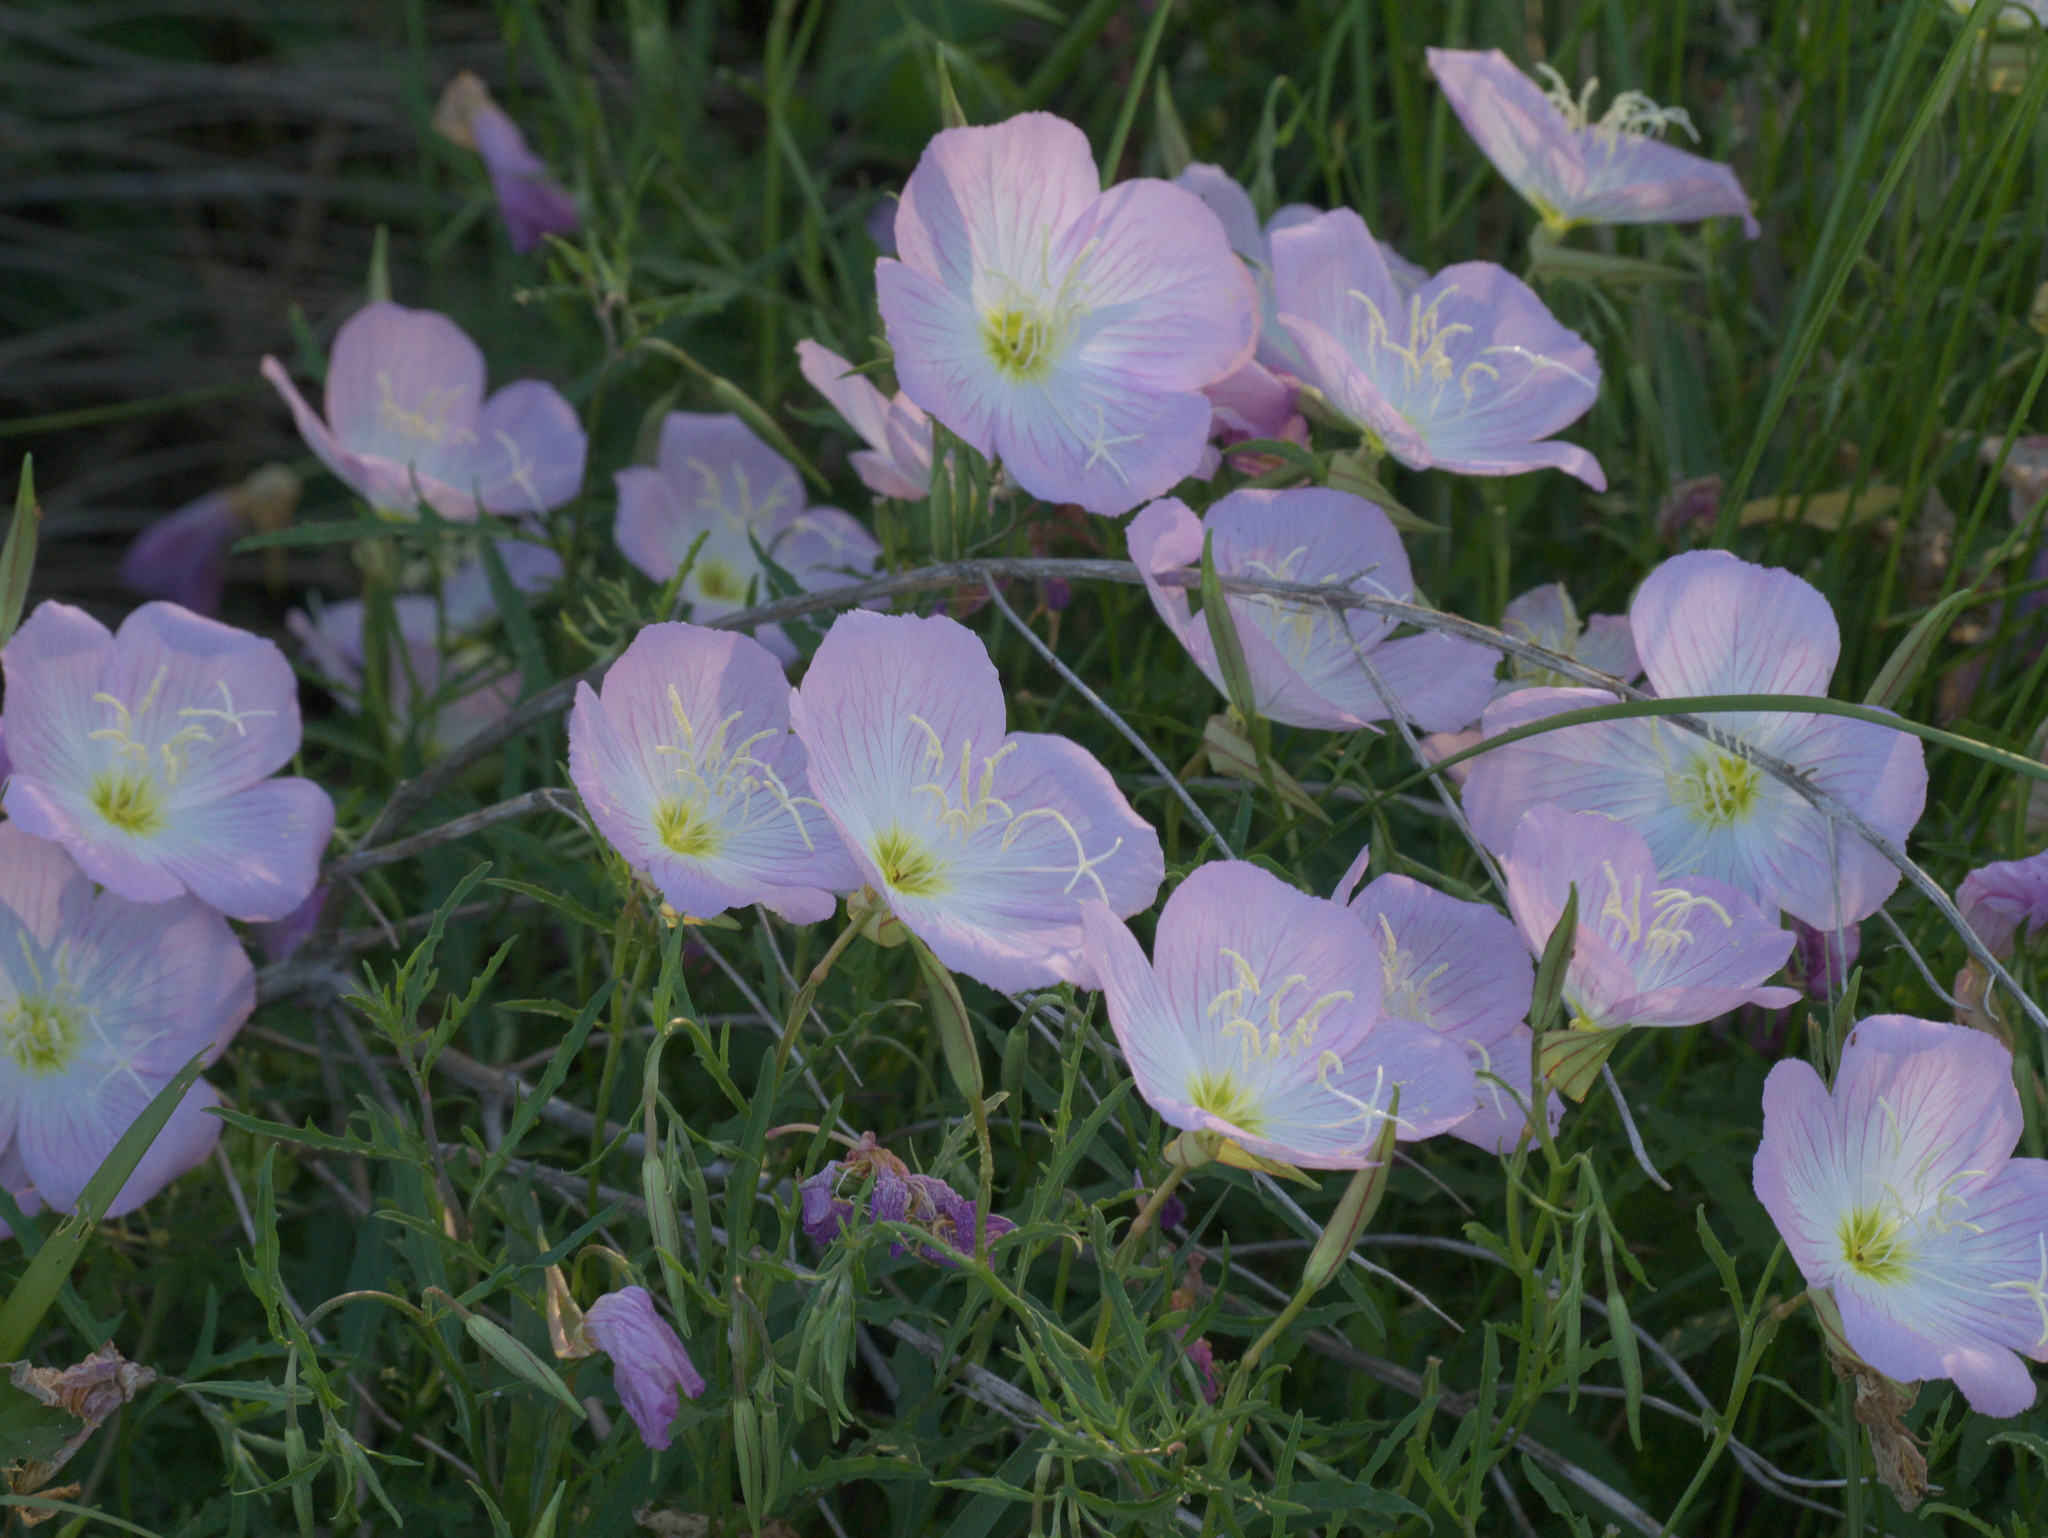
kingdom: Plantae
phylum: Tracheophyta
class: Magnoliopsida
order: Myrtales
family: Onagraceae
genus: Oenothera
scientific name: Oenothera speciosa
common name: White evening-primrose
